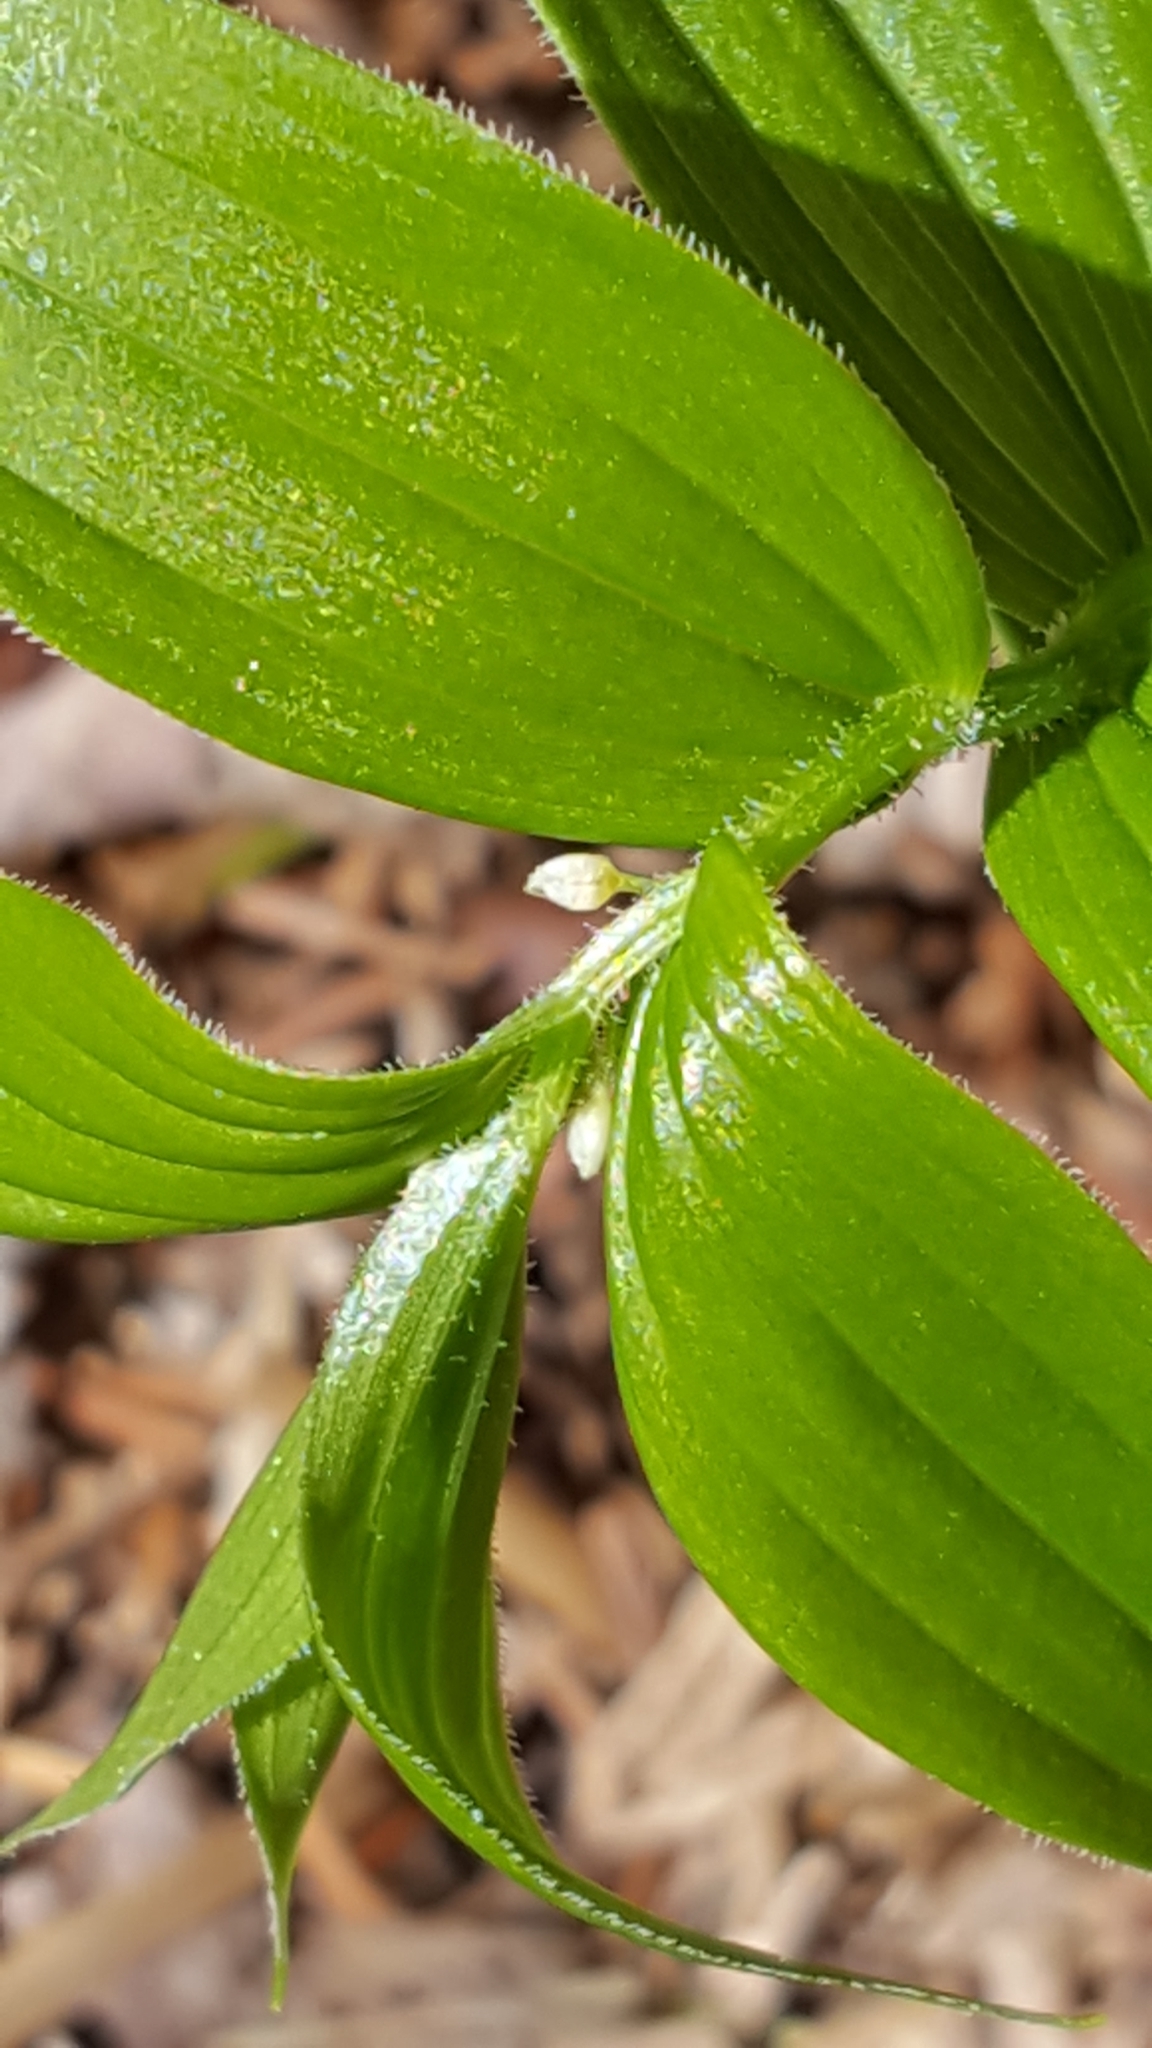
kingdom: Plantae
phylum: Tracheophyta
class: Liliopsida
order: Liliales
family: Liliaceae
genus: Streptopus
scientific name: Streptopus lanceolatus
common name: Rose mandarin
